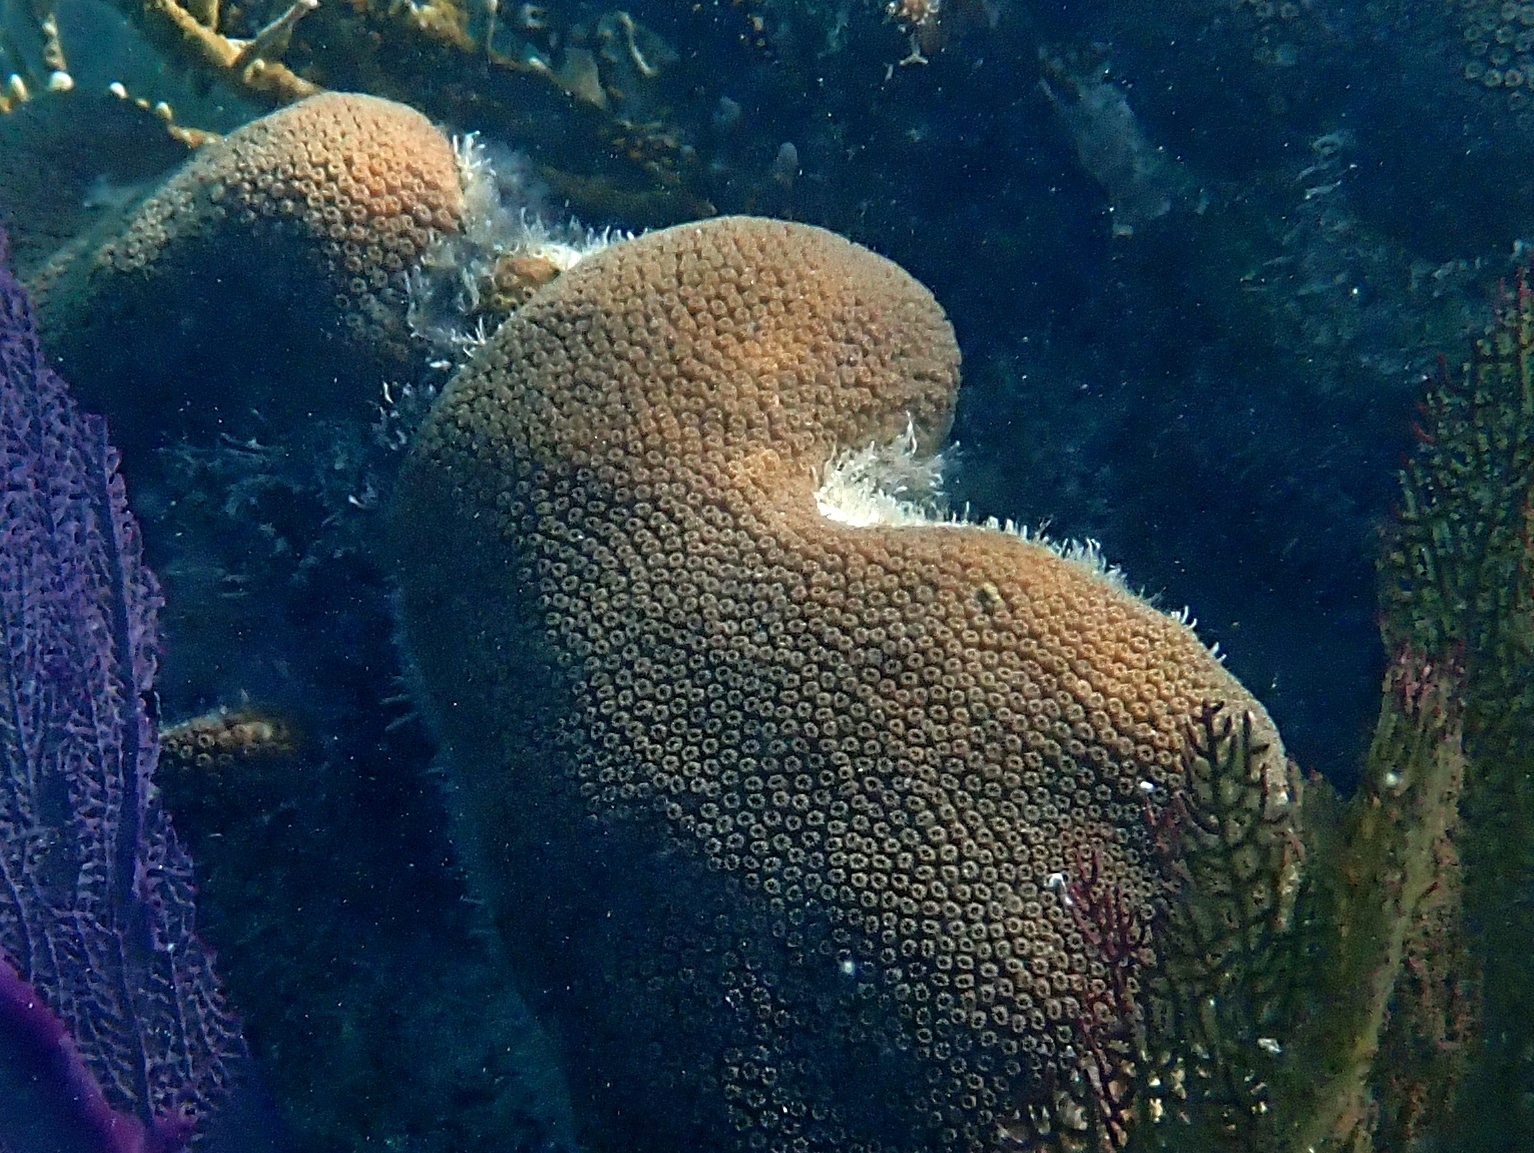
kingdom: Animalia
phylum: Cnidaria
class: Anthozoa
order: Scleractinia
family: Merulinidae
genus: Orbicella
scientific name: Orbicella annularis
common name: Boulder star coral
